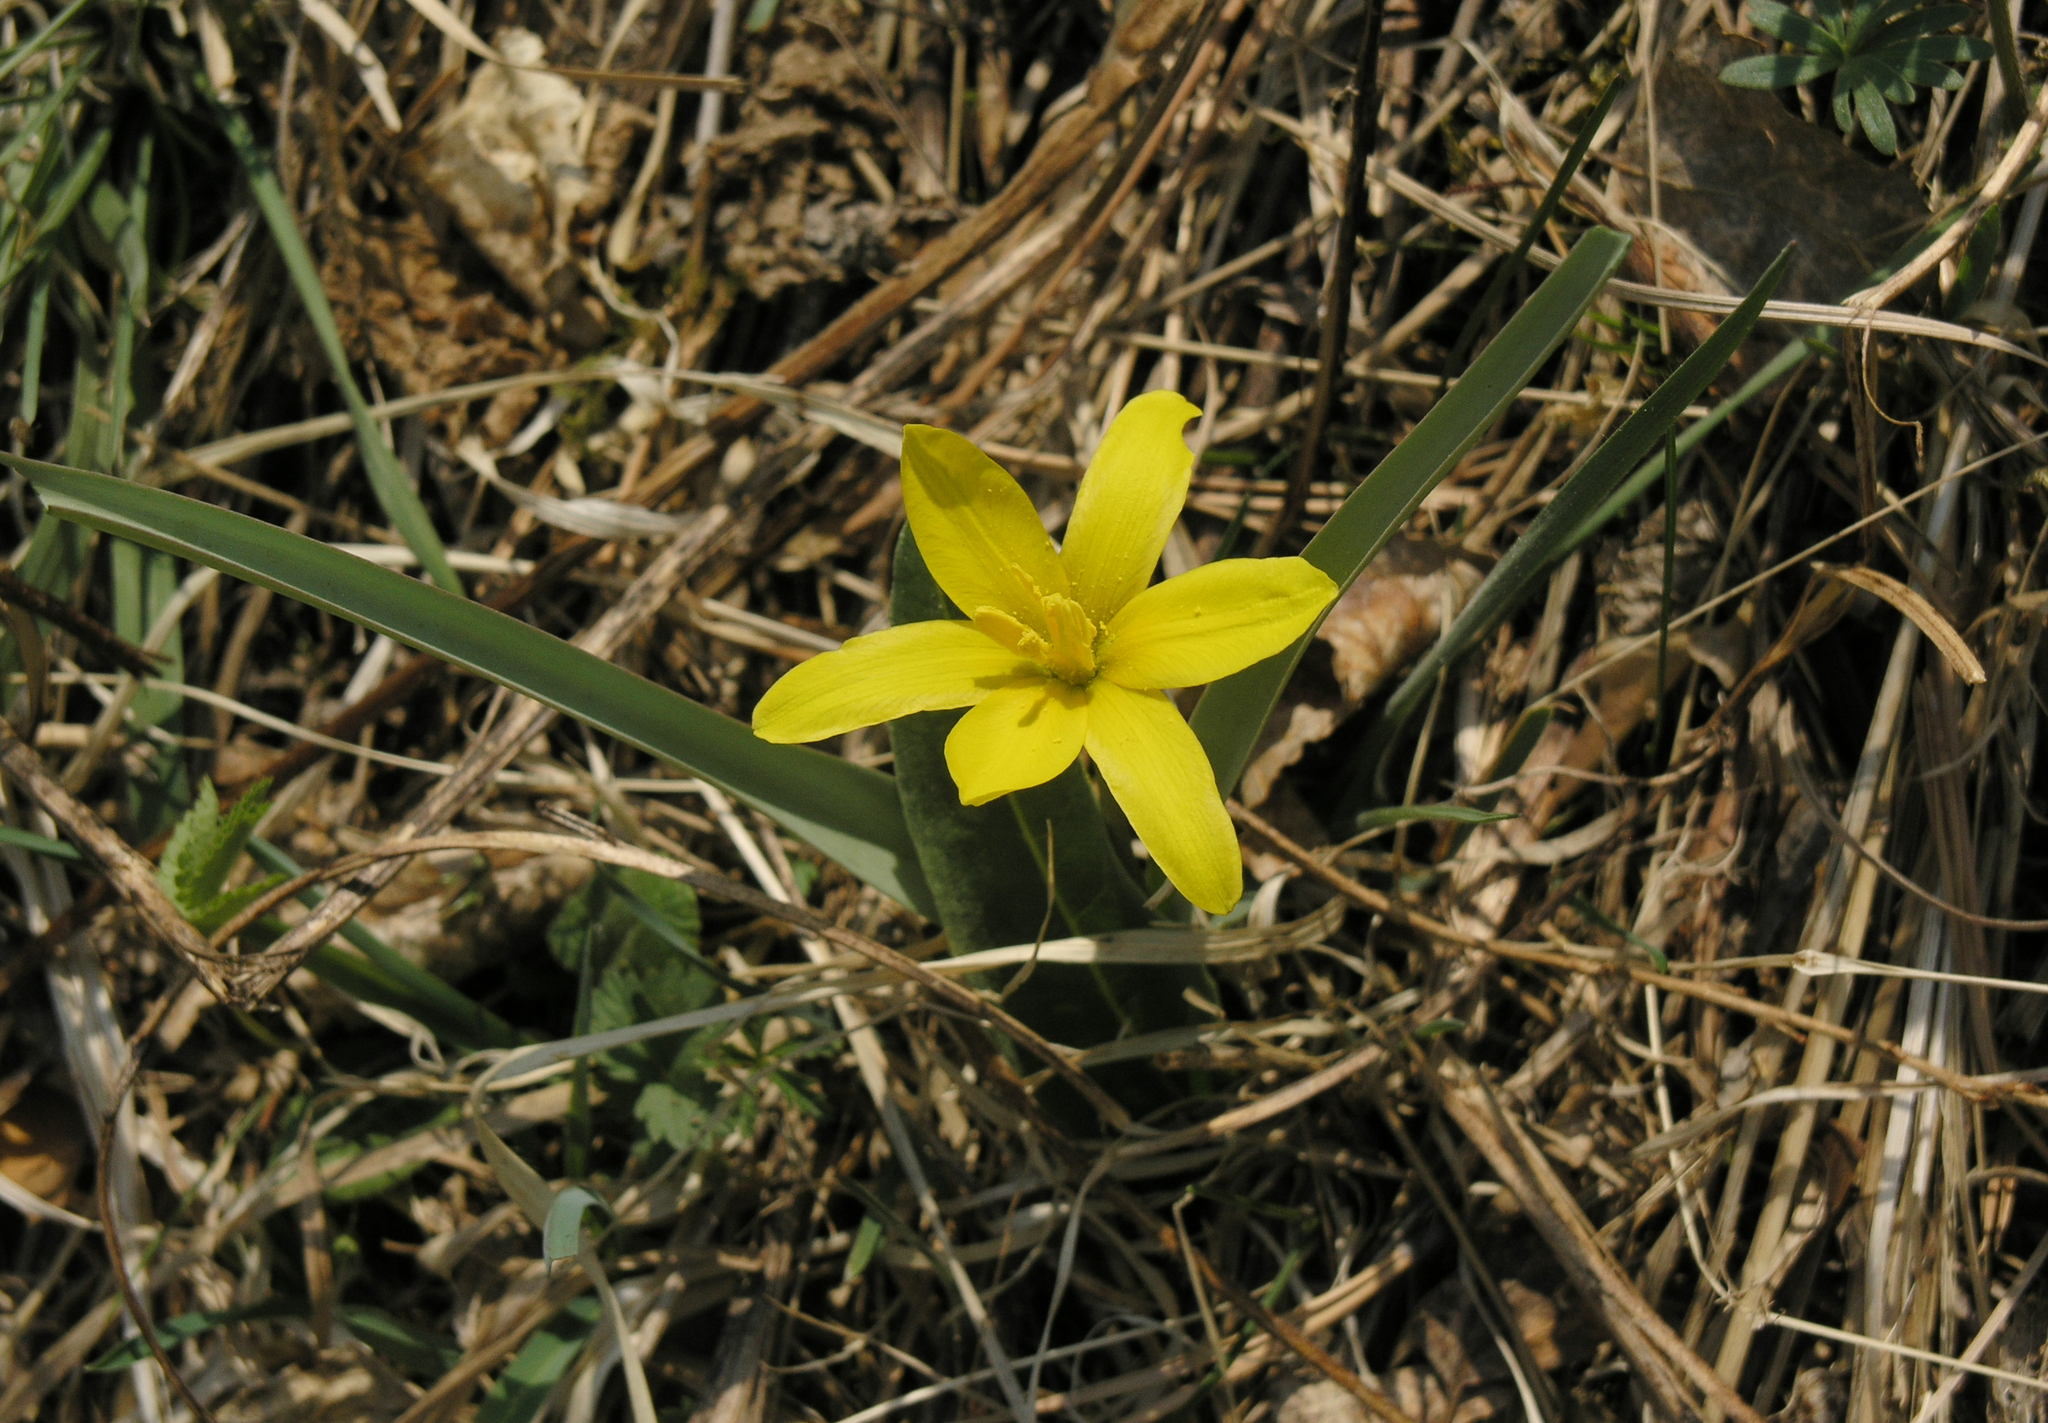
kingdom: Plantae
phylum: Tracheophyta
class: Liliopsida
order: Liliales
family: Liliaceae
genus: Tulipa
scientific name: Tulipa uniflora
